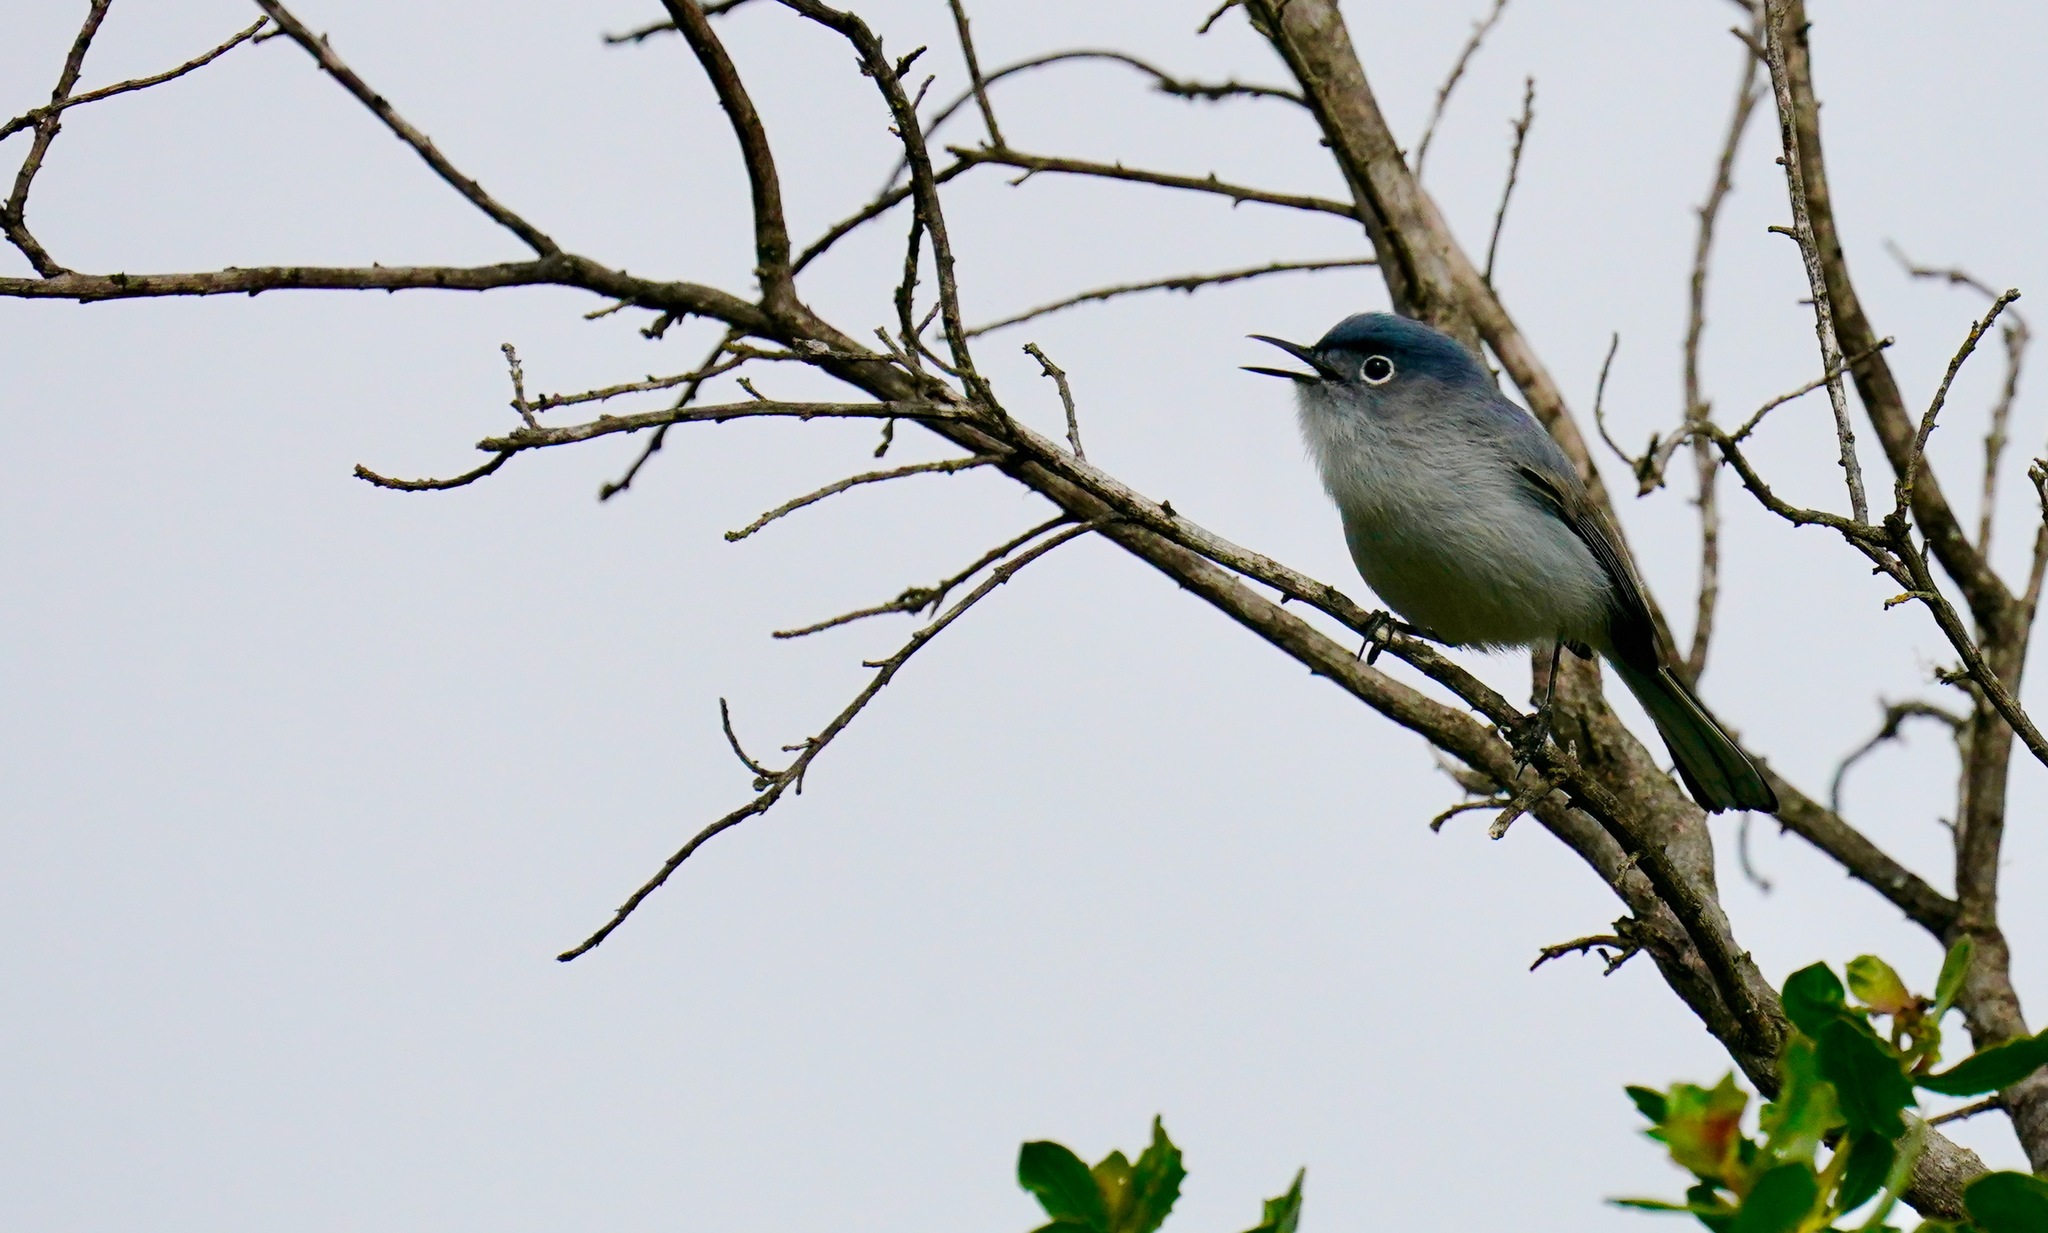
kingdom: Animalia
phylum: Chordata
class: Aves
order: Passeriformes
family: Polioptilidae
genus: Polioptila
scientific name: Polioptila caerulea
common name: Blue-gray gnatcatcher
